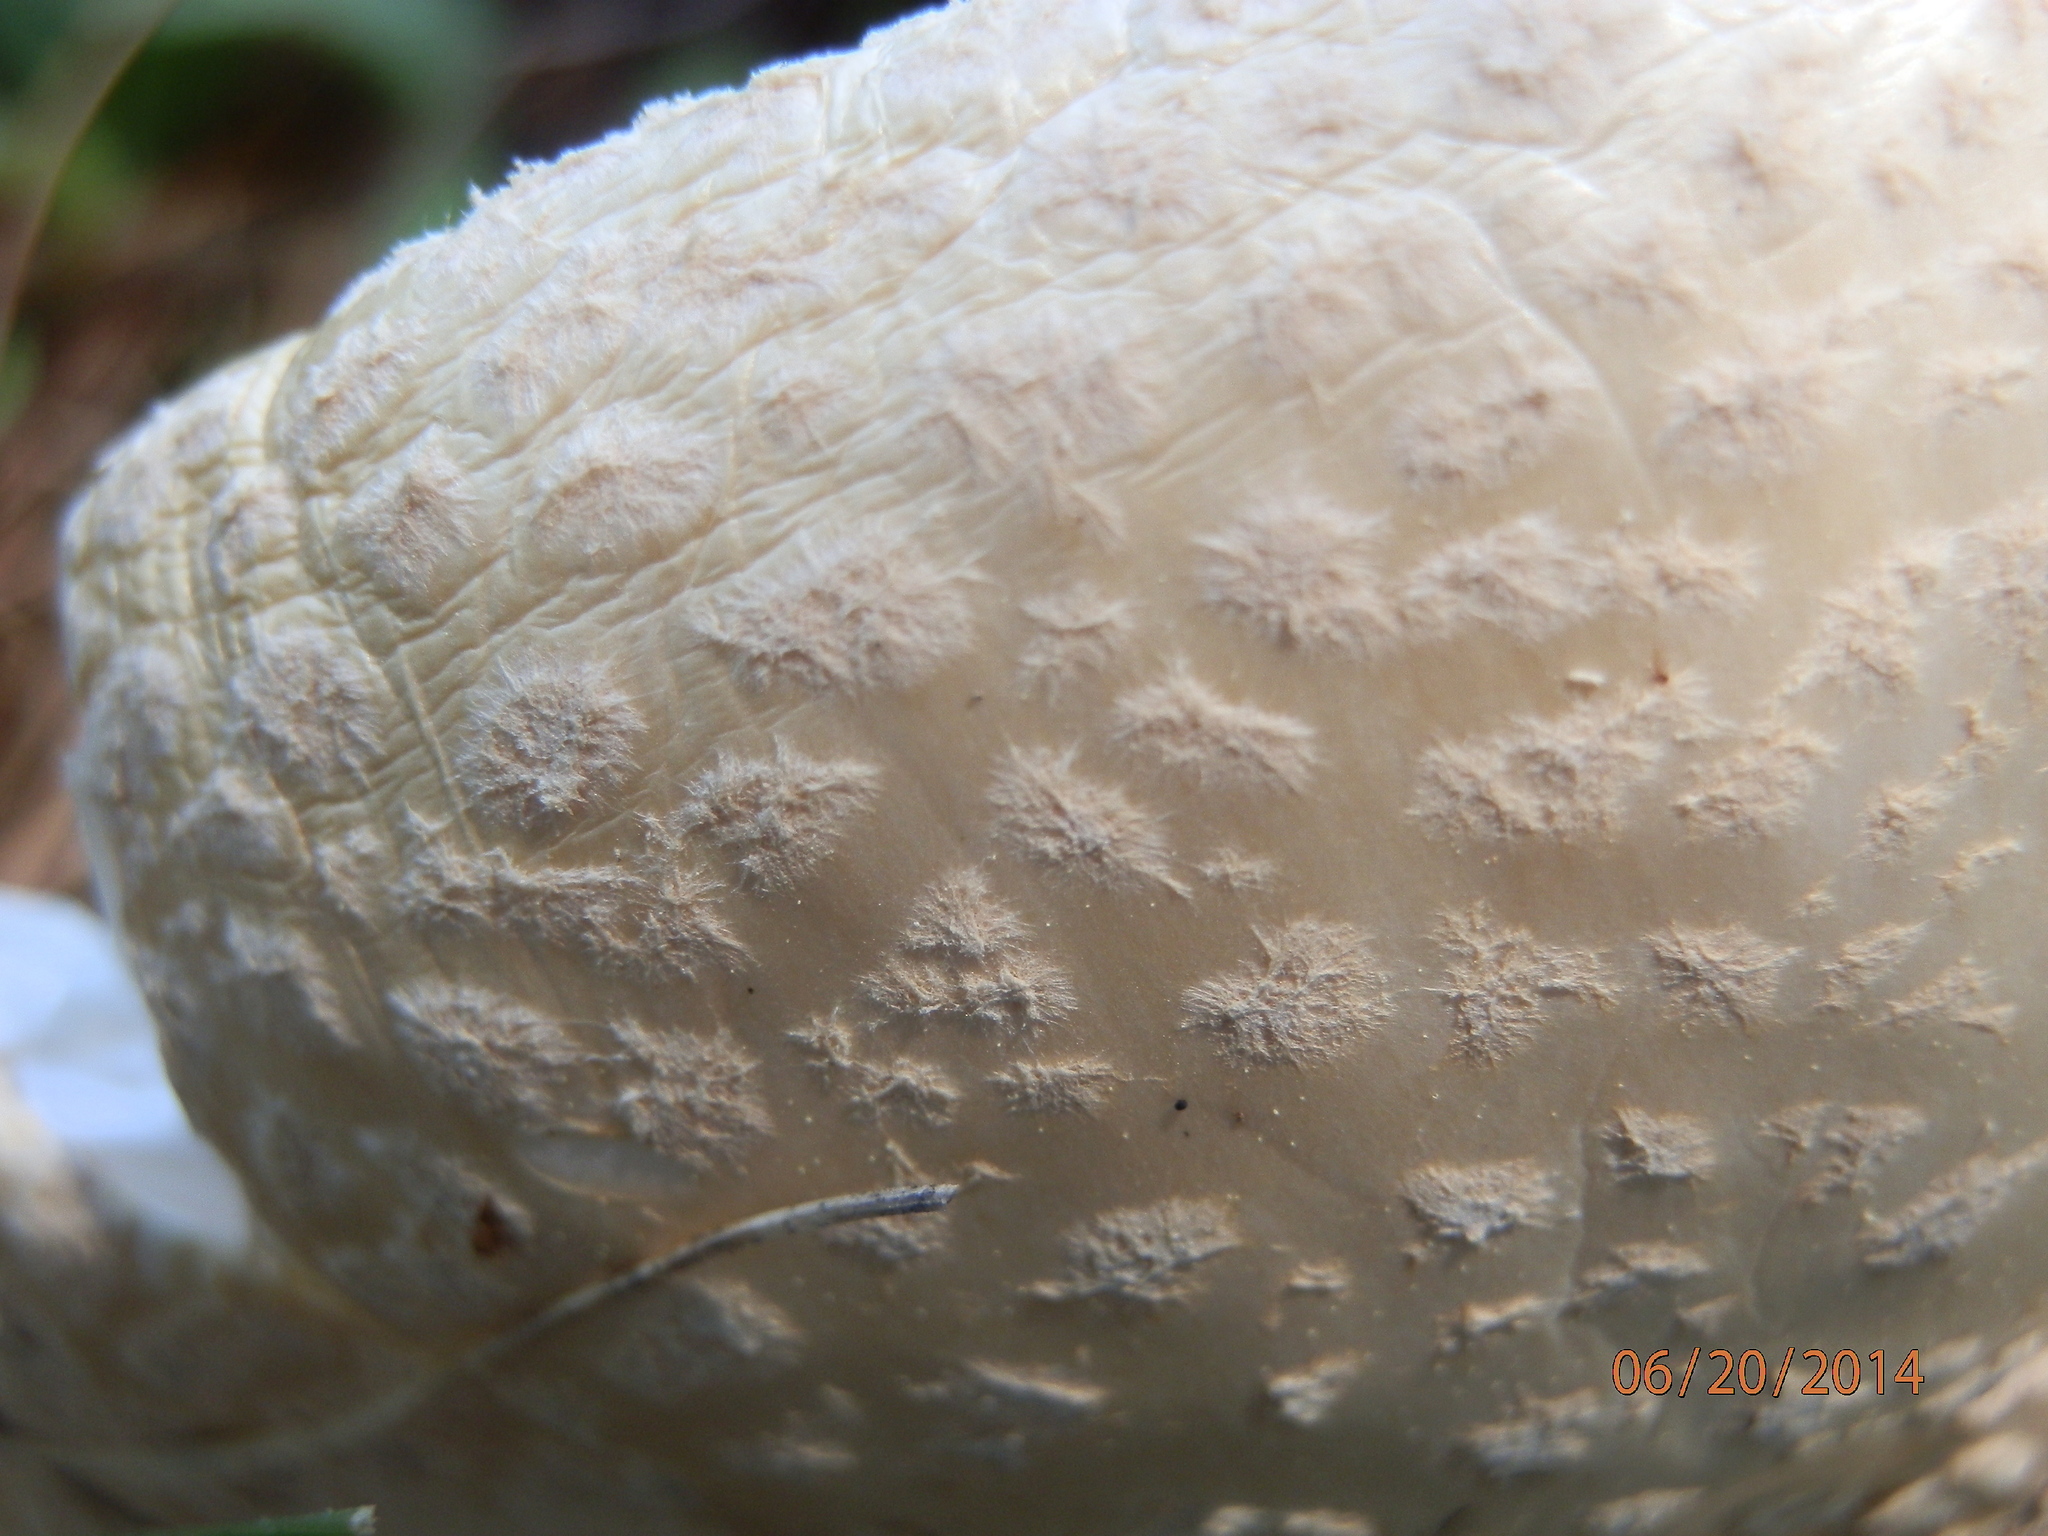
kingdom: Fungi
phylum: Basidiomycota
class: Agaricomycetes
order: Agaricales
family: Amanitaceae
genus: Amanita
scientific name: Amanita muscaria
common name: Fly agaric
